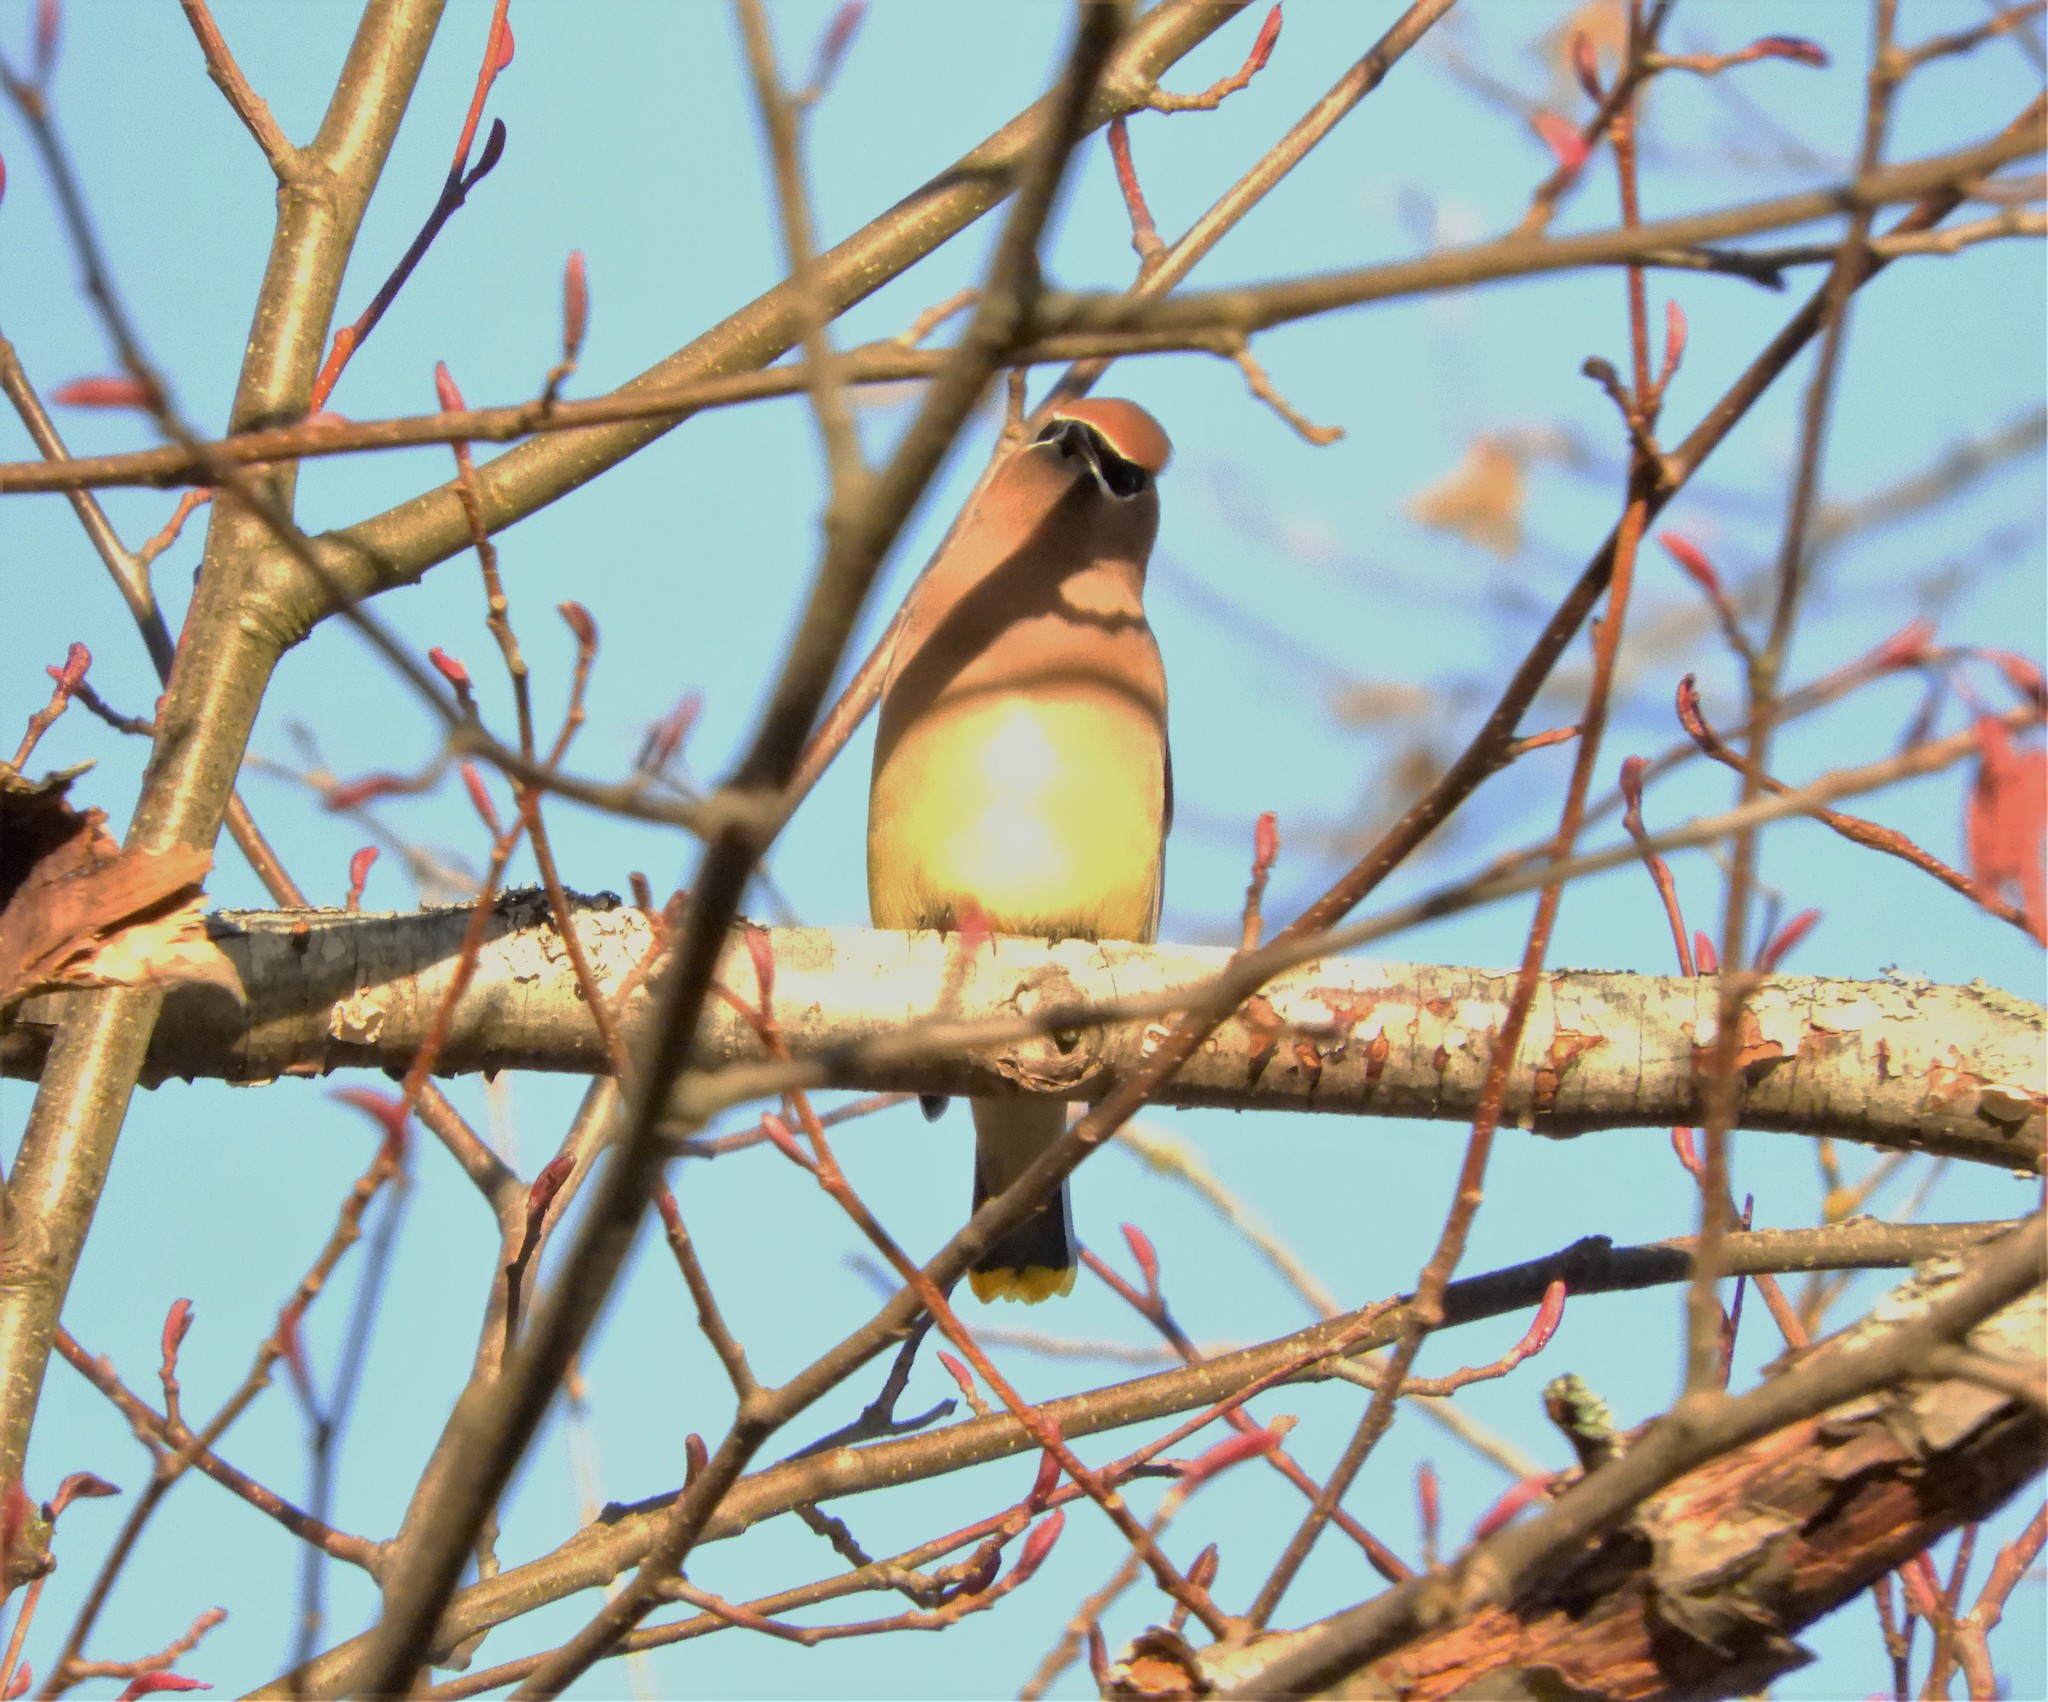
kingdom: Animalia
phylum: Chordata
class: Aves
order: Passeriformes
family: Bombycillidae
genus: Bombycilla
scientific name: Bombycilla cedrorum
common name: Cedar waxwing
